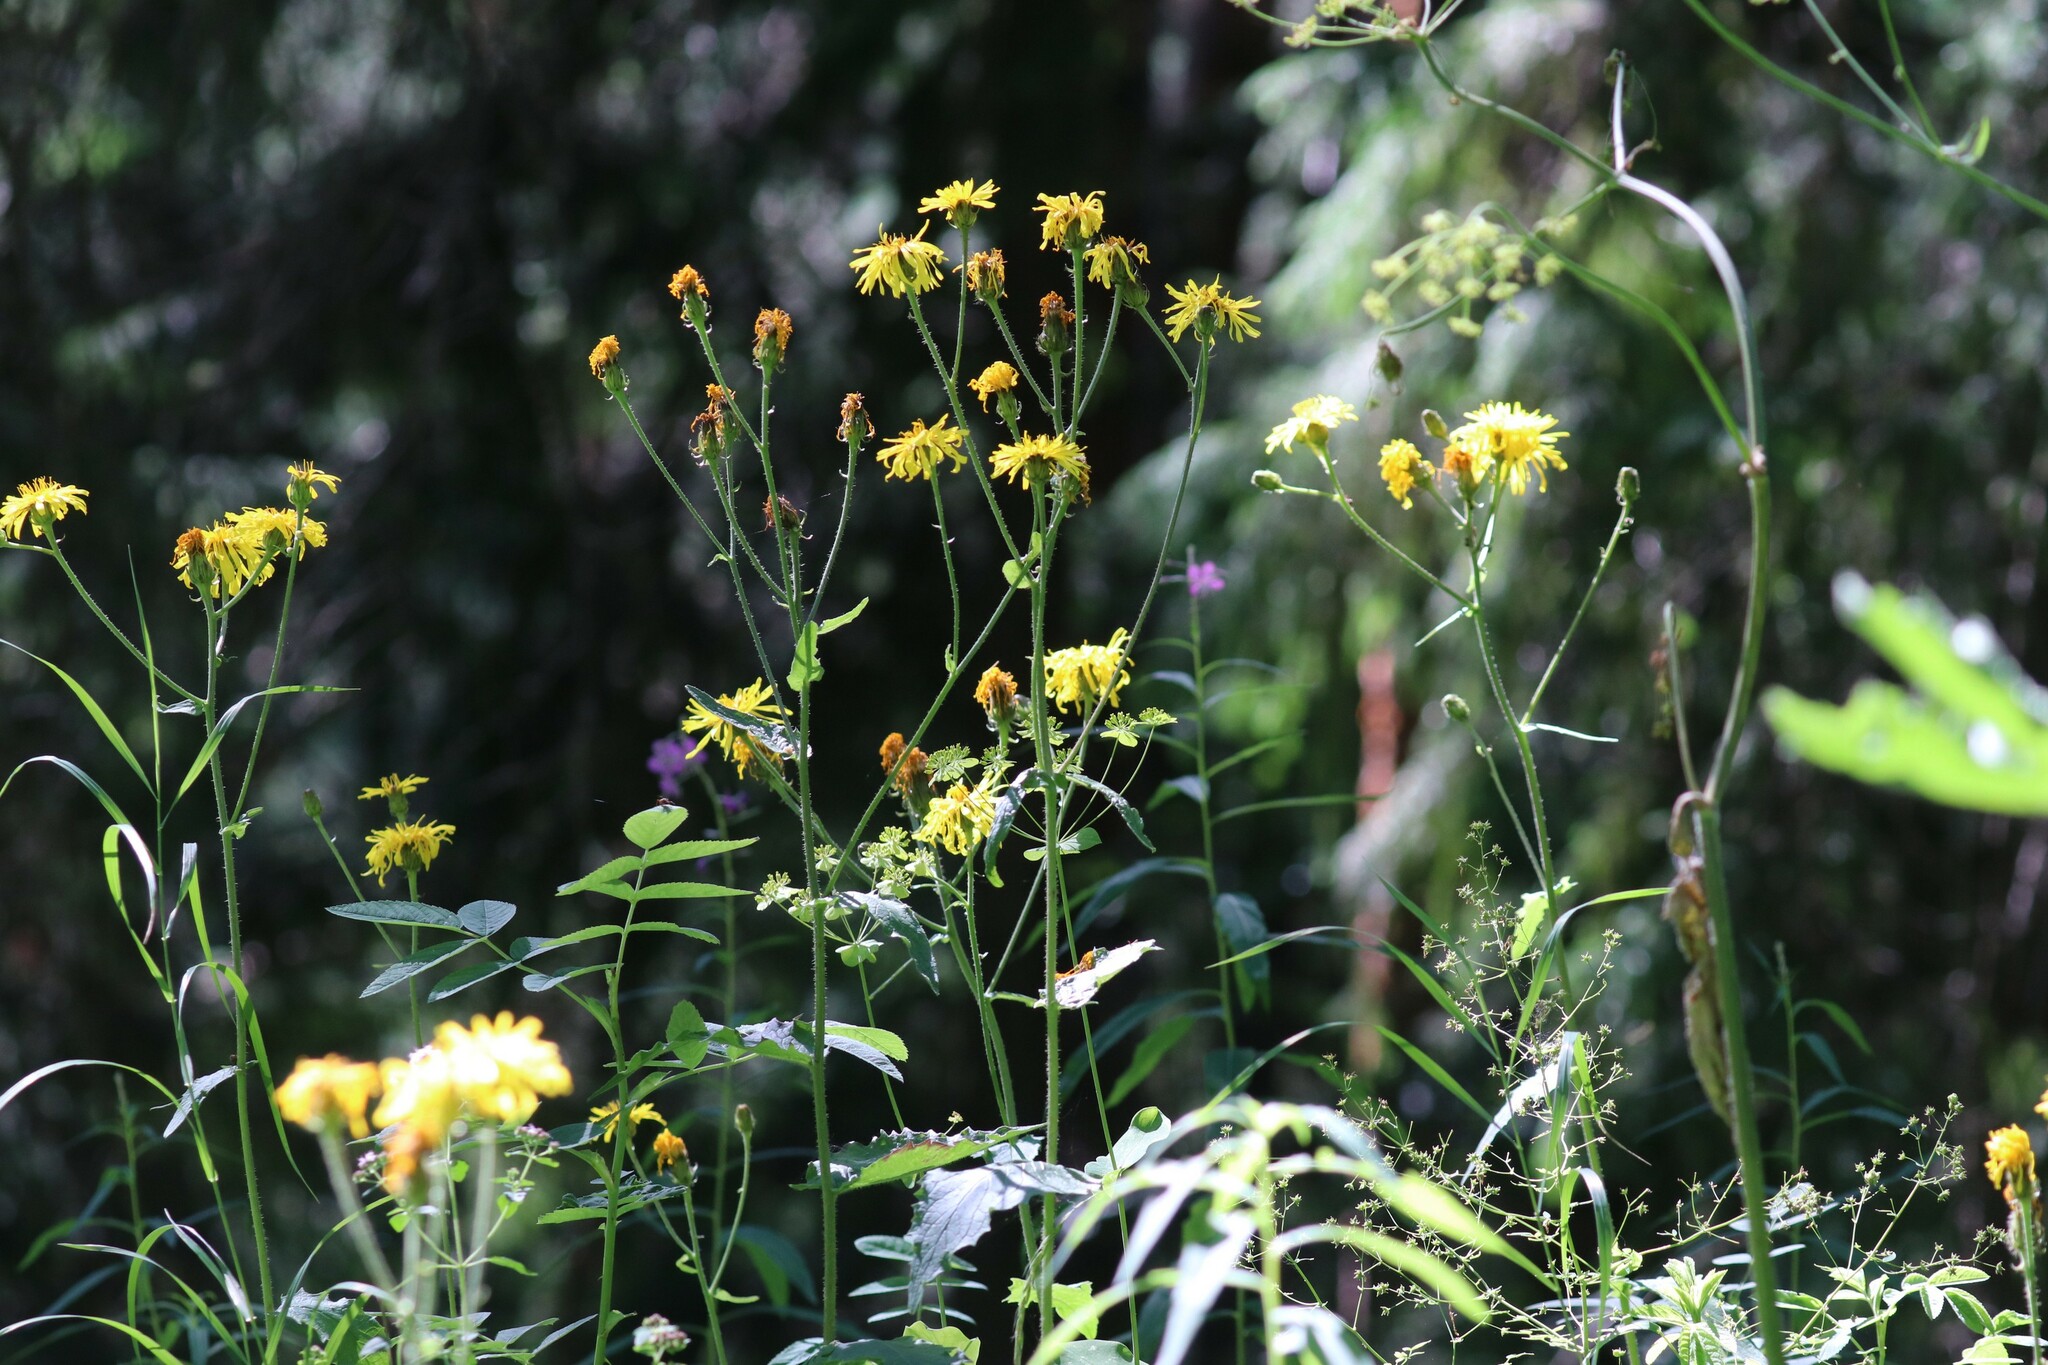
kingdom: Plantae
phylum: Tracheophyta
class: Magnoliopsida
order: Asterales
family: Asteraceae
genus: Crepis
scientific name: Crepis sibirica
